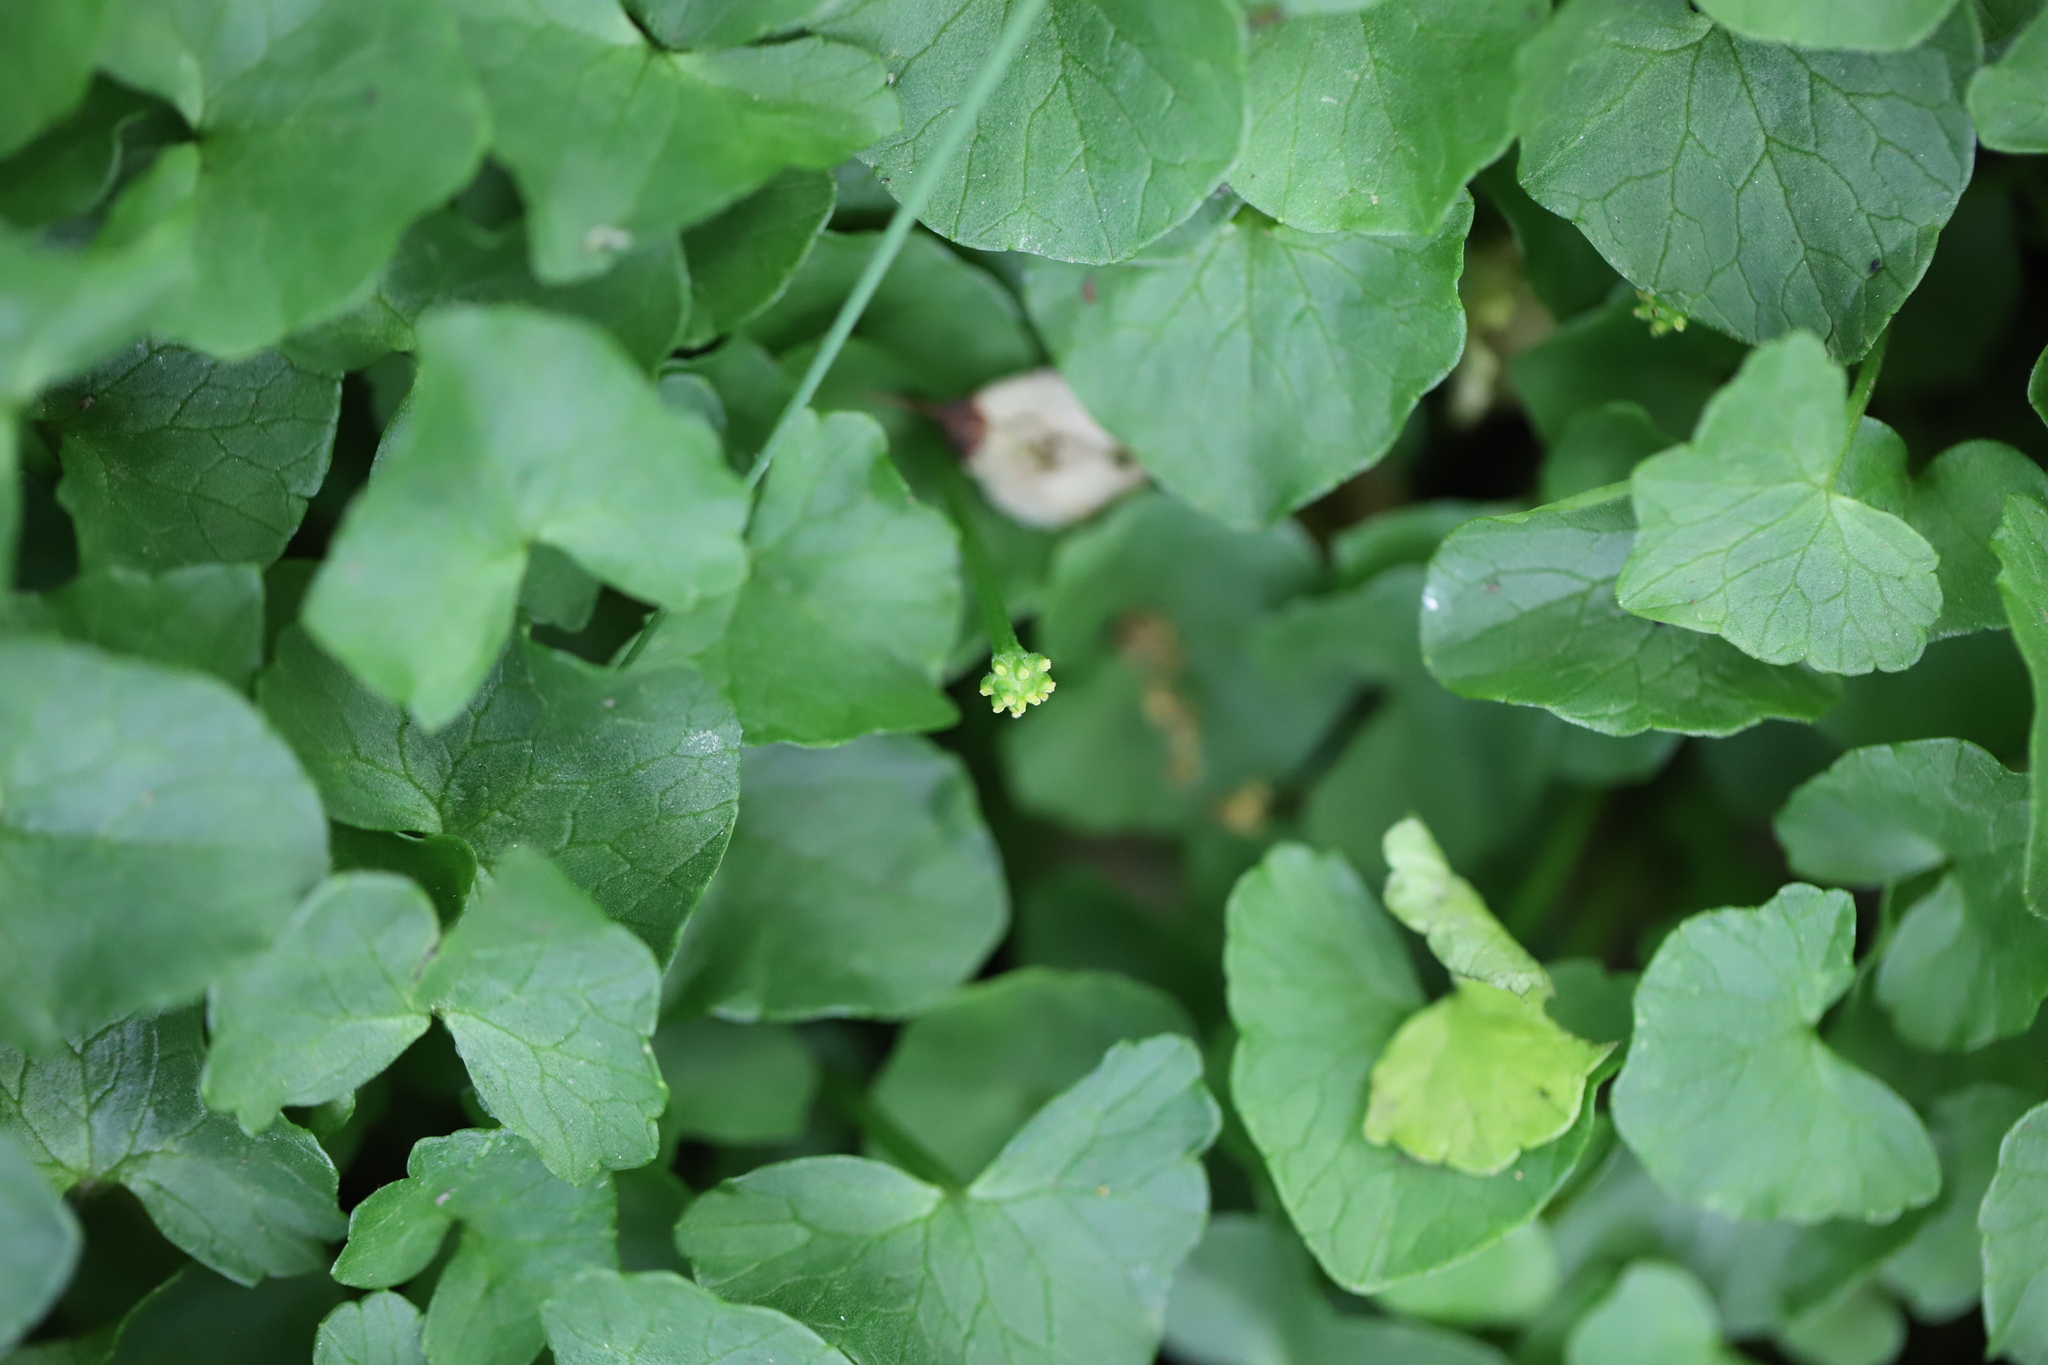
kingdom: Plantae
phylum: Tracheophyta
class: Magnoliopsida
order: Ranunculales
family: Ranunculaceae
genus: Ficaria
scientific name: Ficaria verna
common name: Lesser celandine
